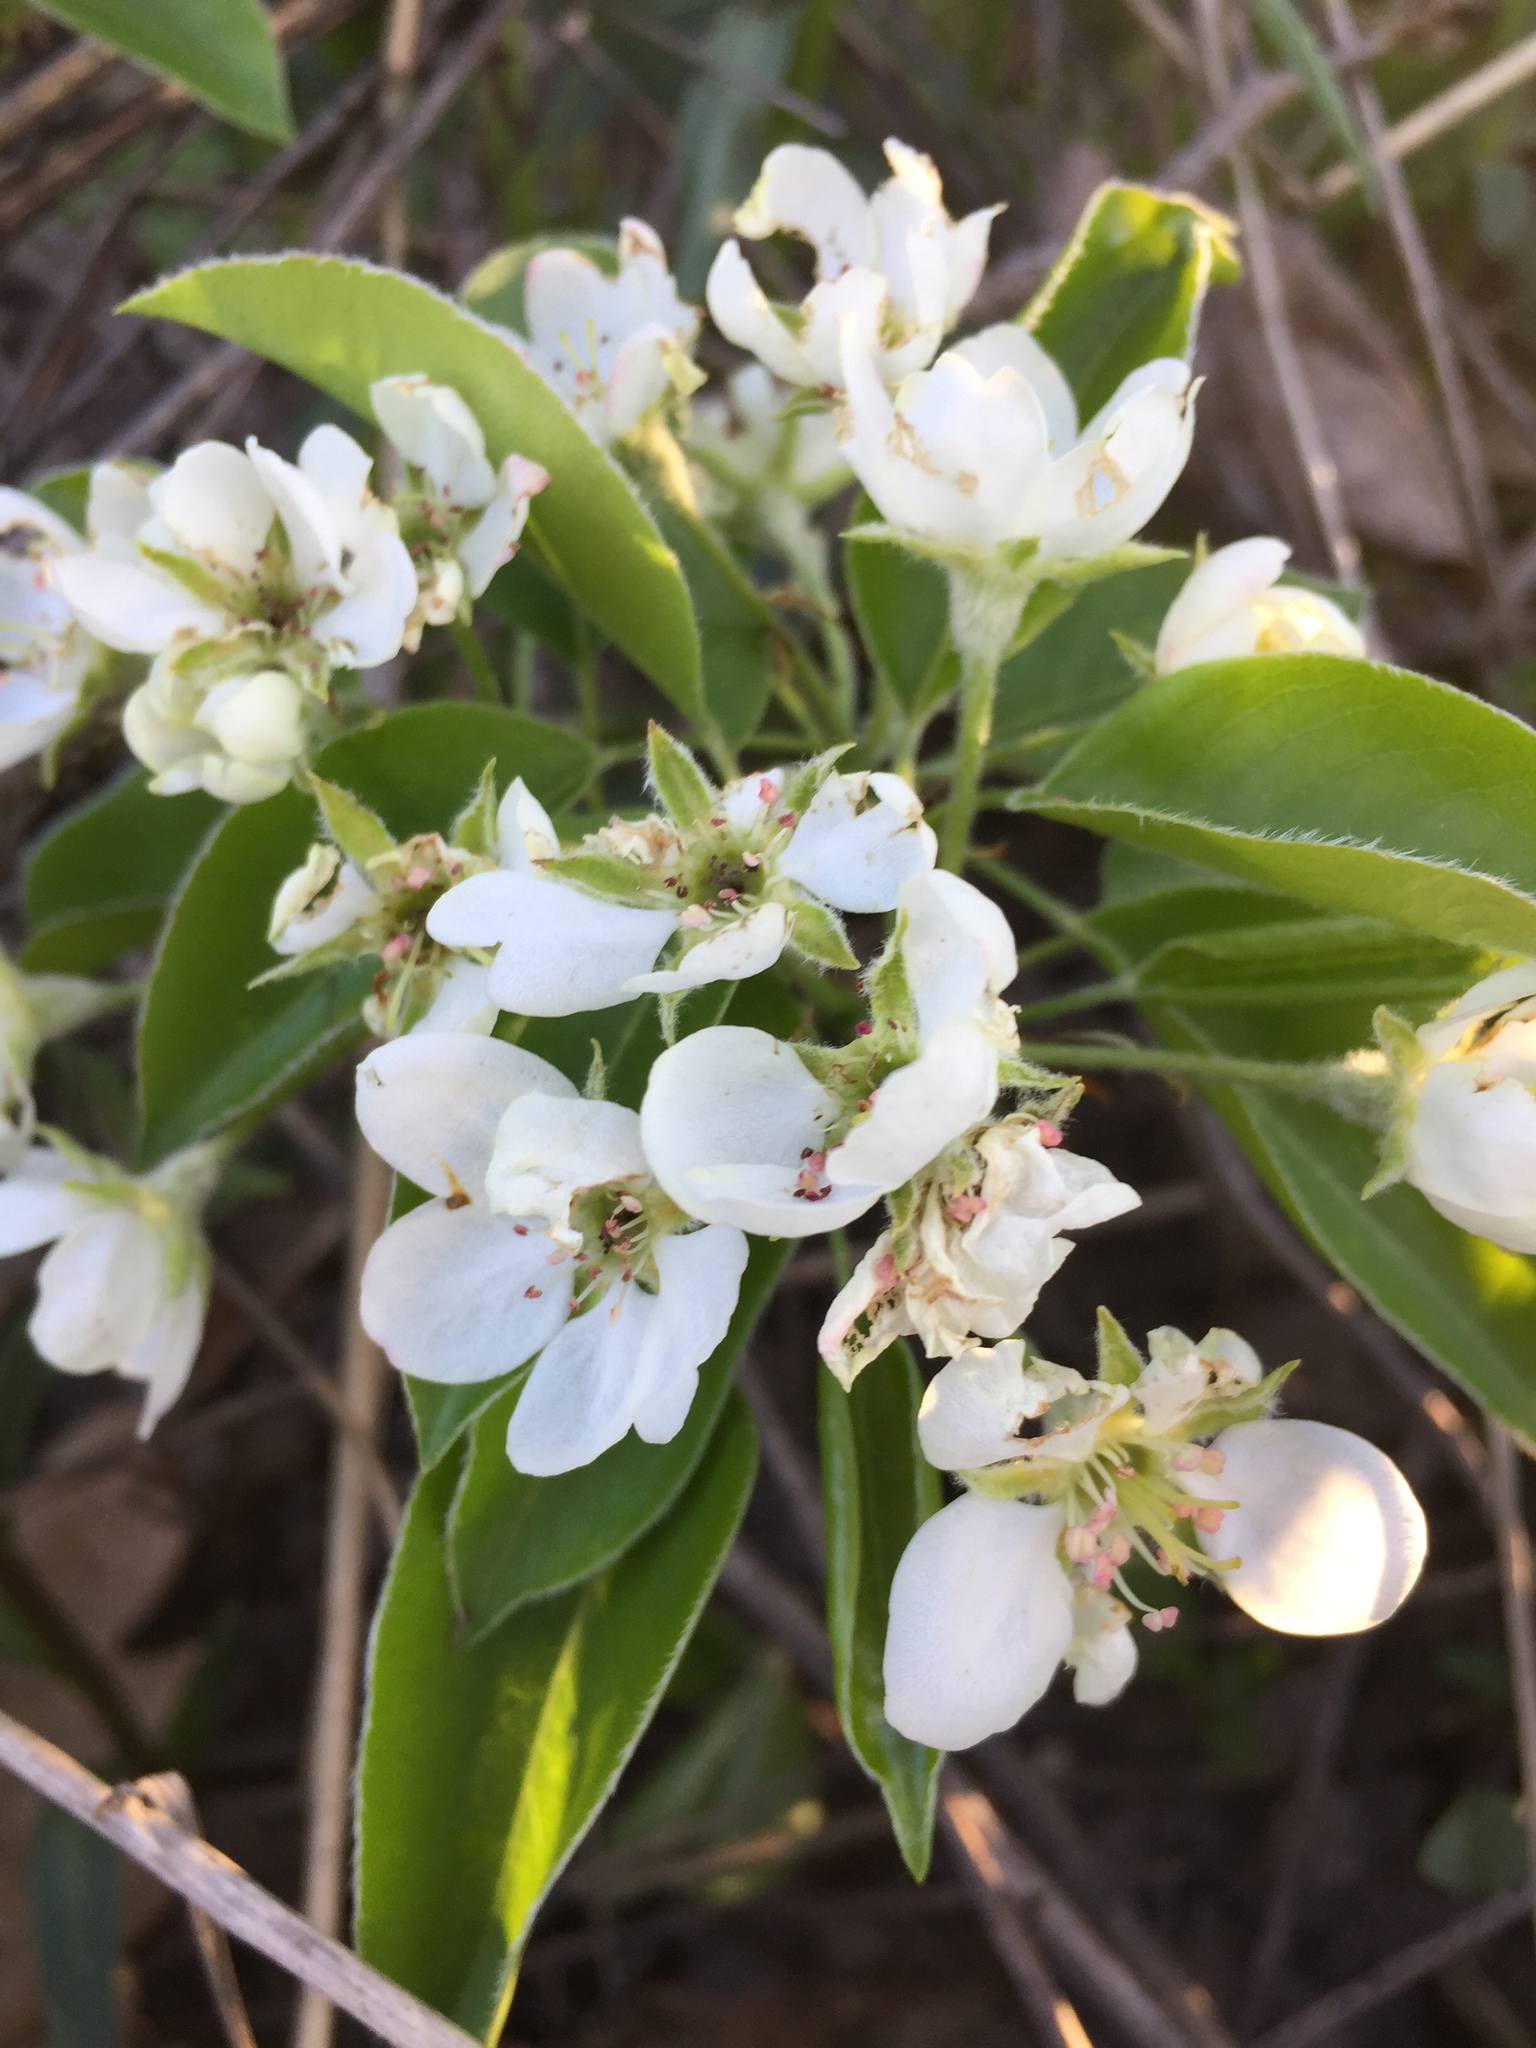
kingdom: Plantae
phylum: Tracheophyta
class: Magnoliopsida
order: Rosales
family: Rosaceae
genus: Pyrus
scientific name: Pyrus communis
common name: Pear
